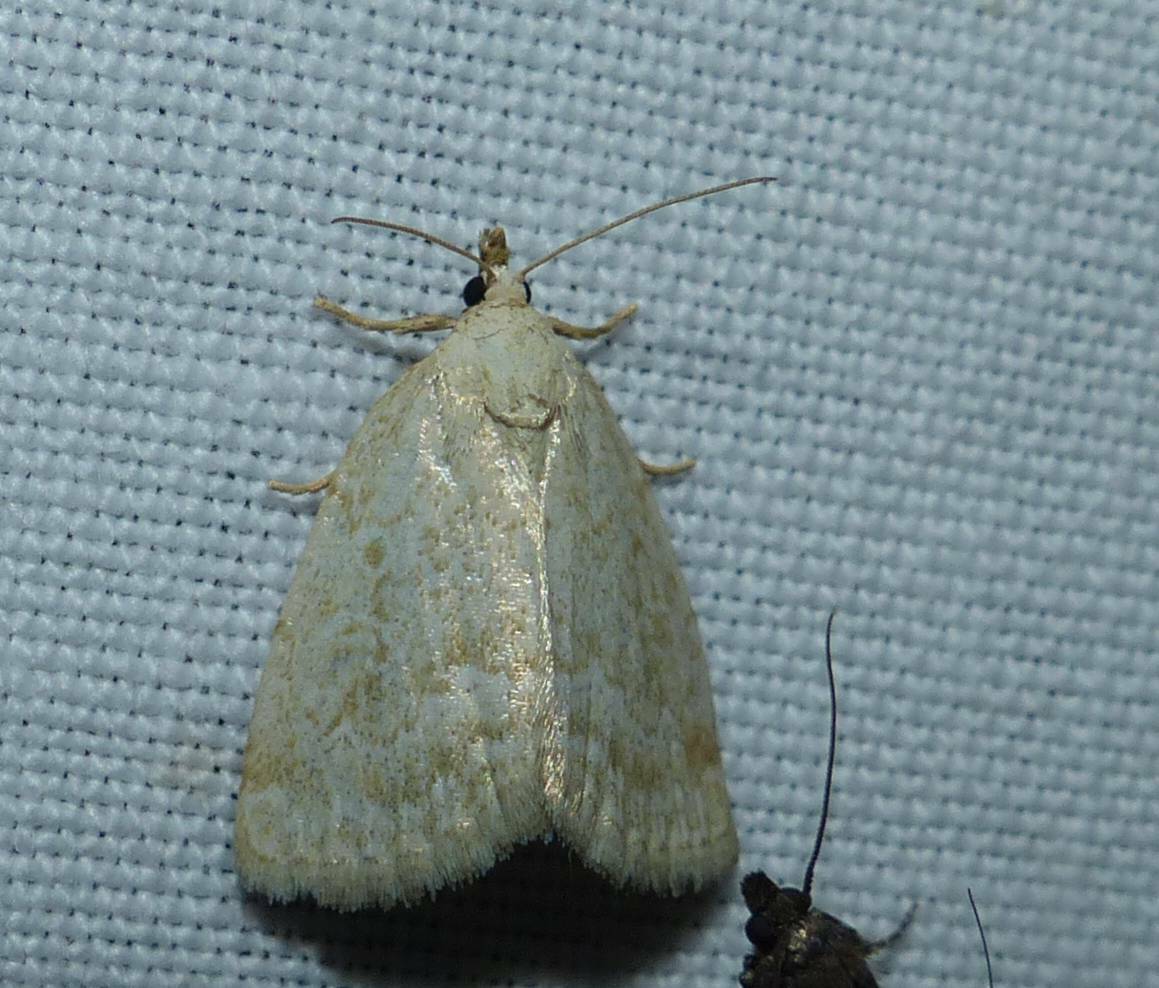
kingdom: Animalia
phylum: Arthropoda
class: Insecta
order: Lepidoptera
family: Noctuidae
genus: Protodeltote
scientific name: Protodeltote albidula
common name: Pale glyph
